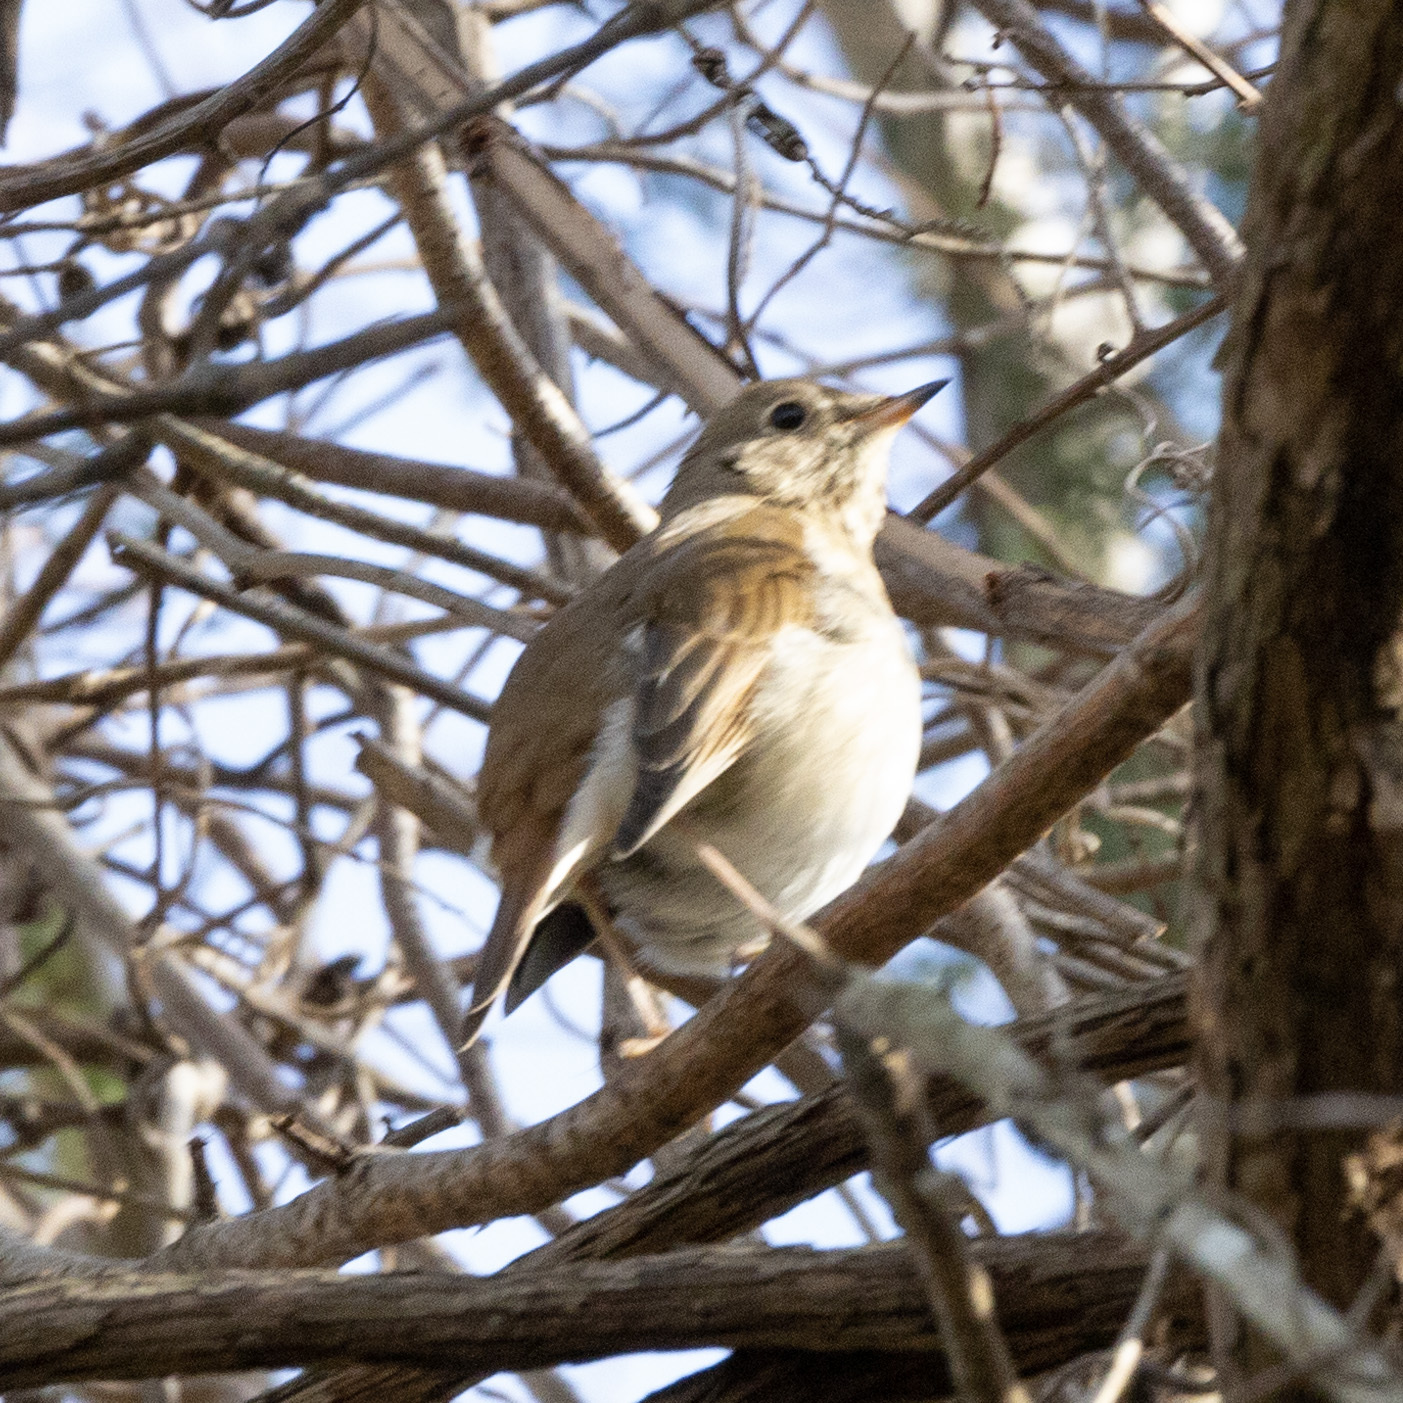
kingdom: Animalia
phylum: Chordata
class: Aves
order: Passeriformes
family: Turdidae
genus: Catharus
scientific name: Catharus guttatus
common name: Hermit thrush
